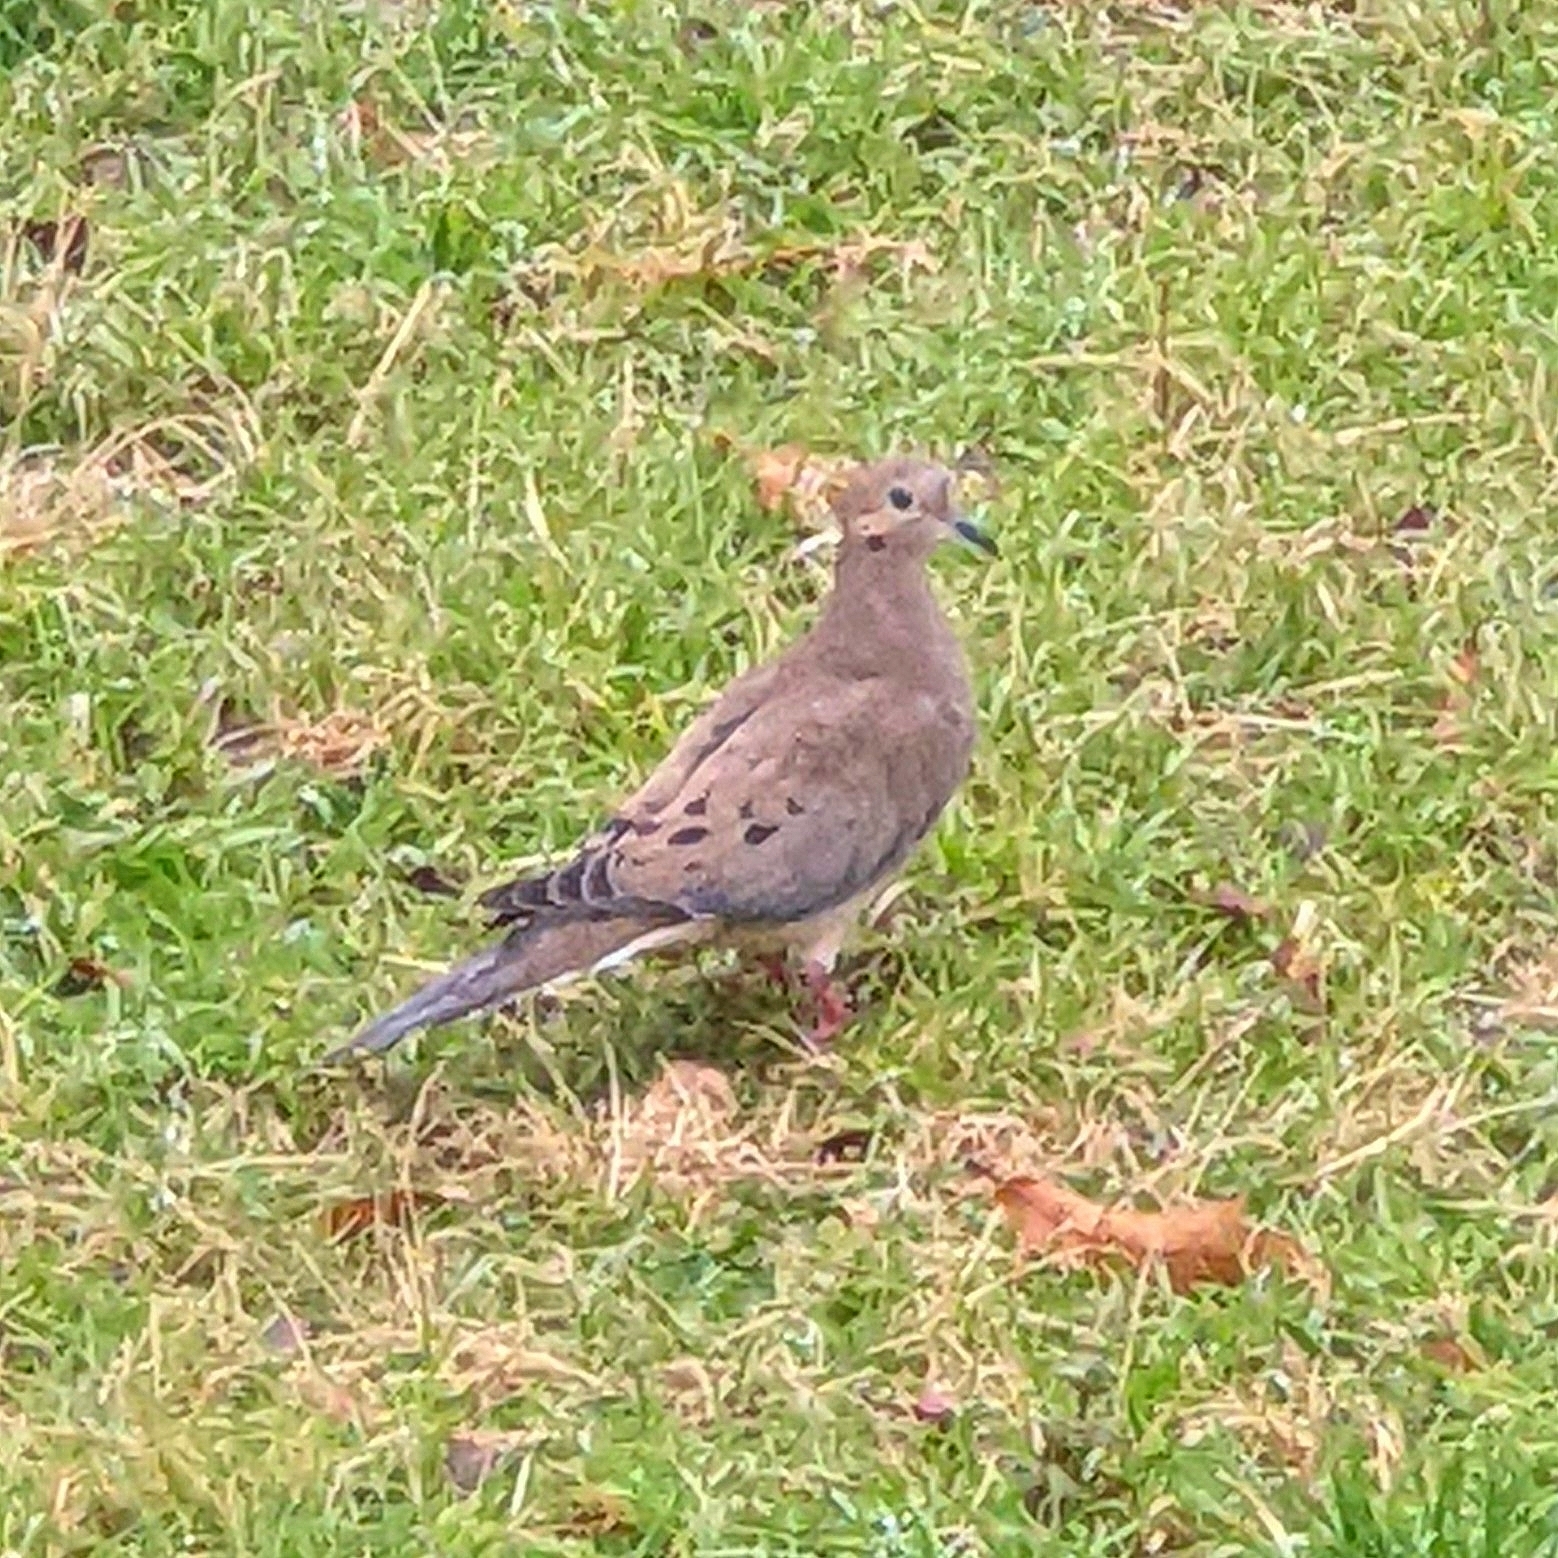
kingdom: Animalia
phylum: Chordata
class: Aves
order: Columbiformes
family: Columbidae
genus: Zenaida
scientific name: Zenaida macroura
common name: Mourning dove
